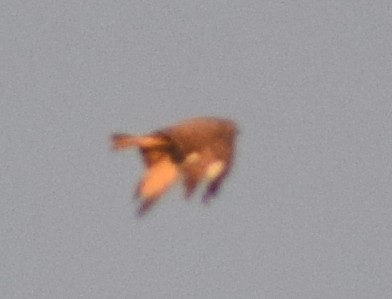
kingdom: Animalia
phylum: Chordata
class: Aves
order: Accipitriformes
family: Accipitridae
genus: Buteo
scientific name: Buteo buteo
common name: Common buzzard
